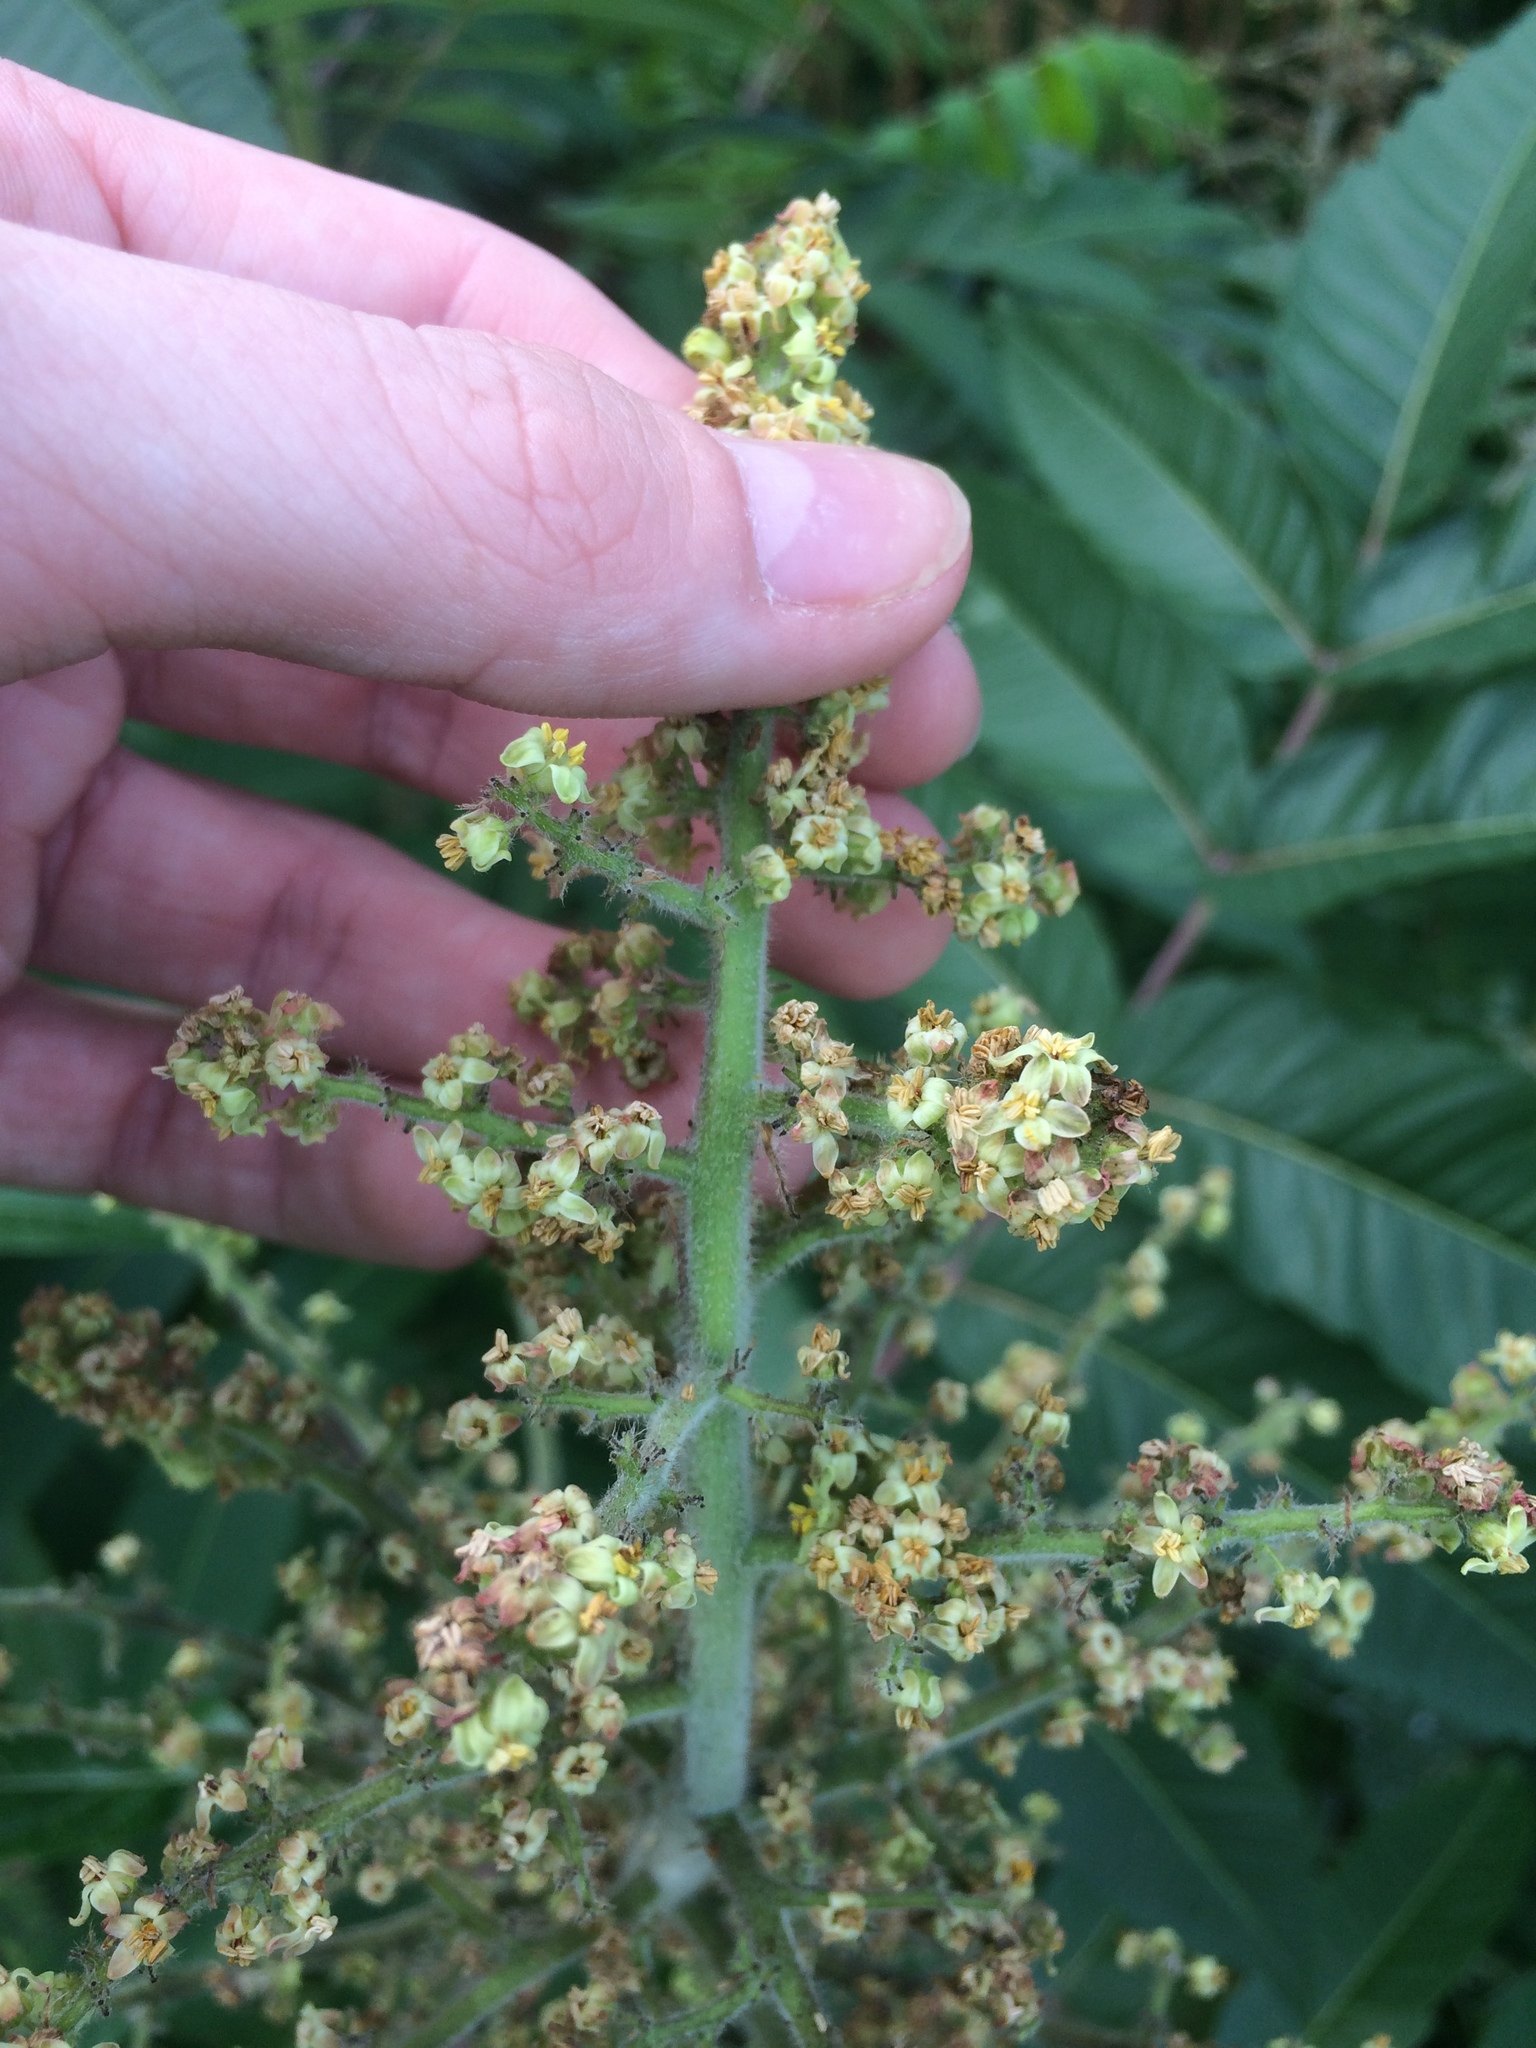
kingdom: Plantae
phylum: Tracheophyta
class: Magnoliopsida
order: Sapindales
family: Anacardiaceae
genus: Rhus
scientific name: Rhus typhina
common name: Staghorn sumac
